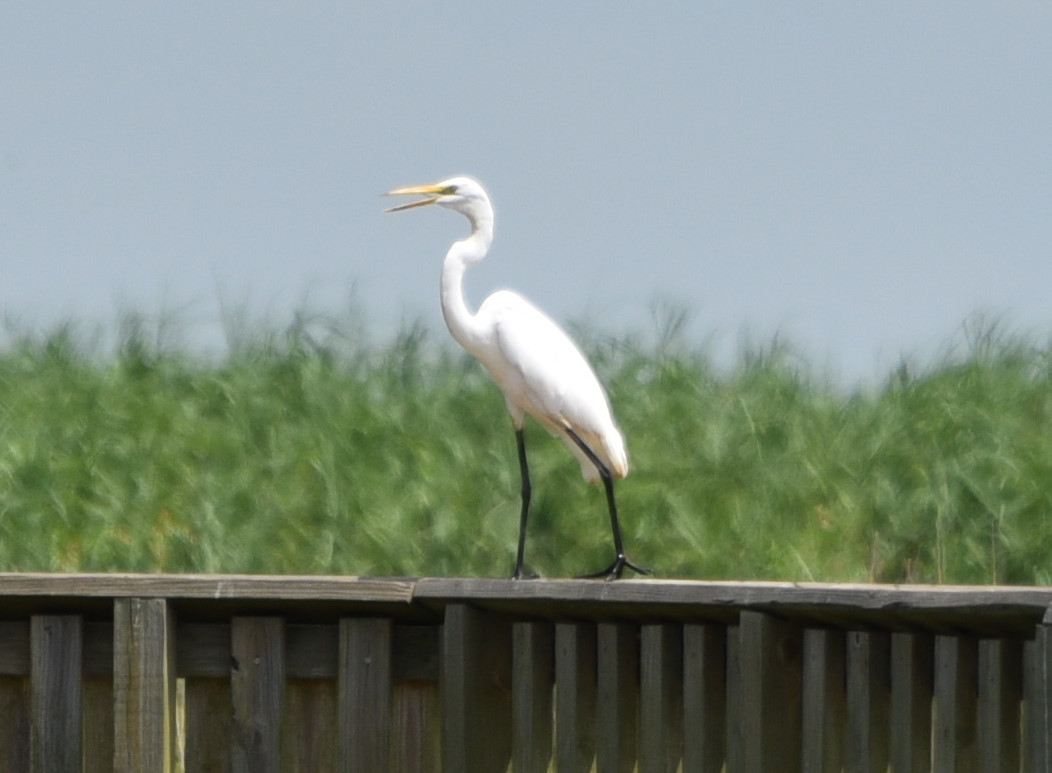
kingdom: Animalia
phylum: Chordata
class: Aves
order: Pelecaniformes
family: Ardeidae
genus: Ardea
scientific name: Ardea alba
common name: Great egret
